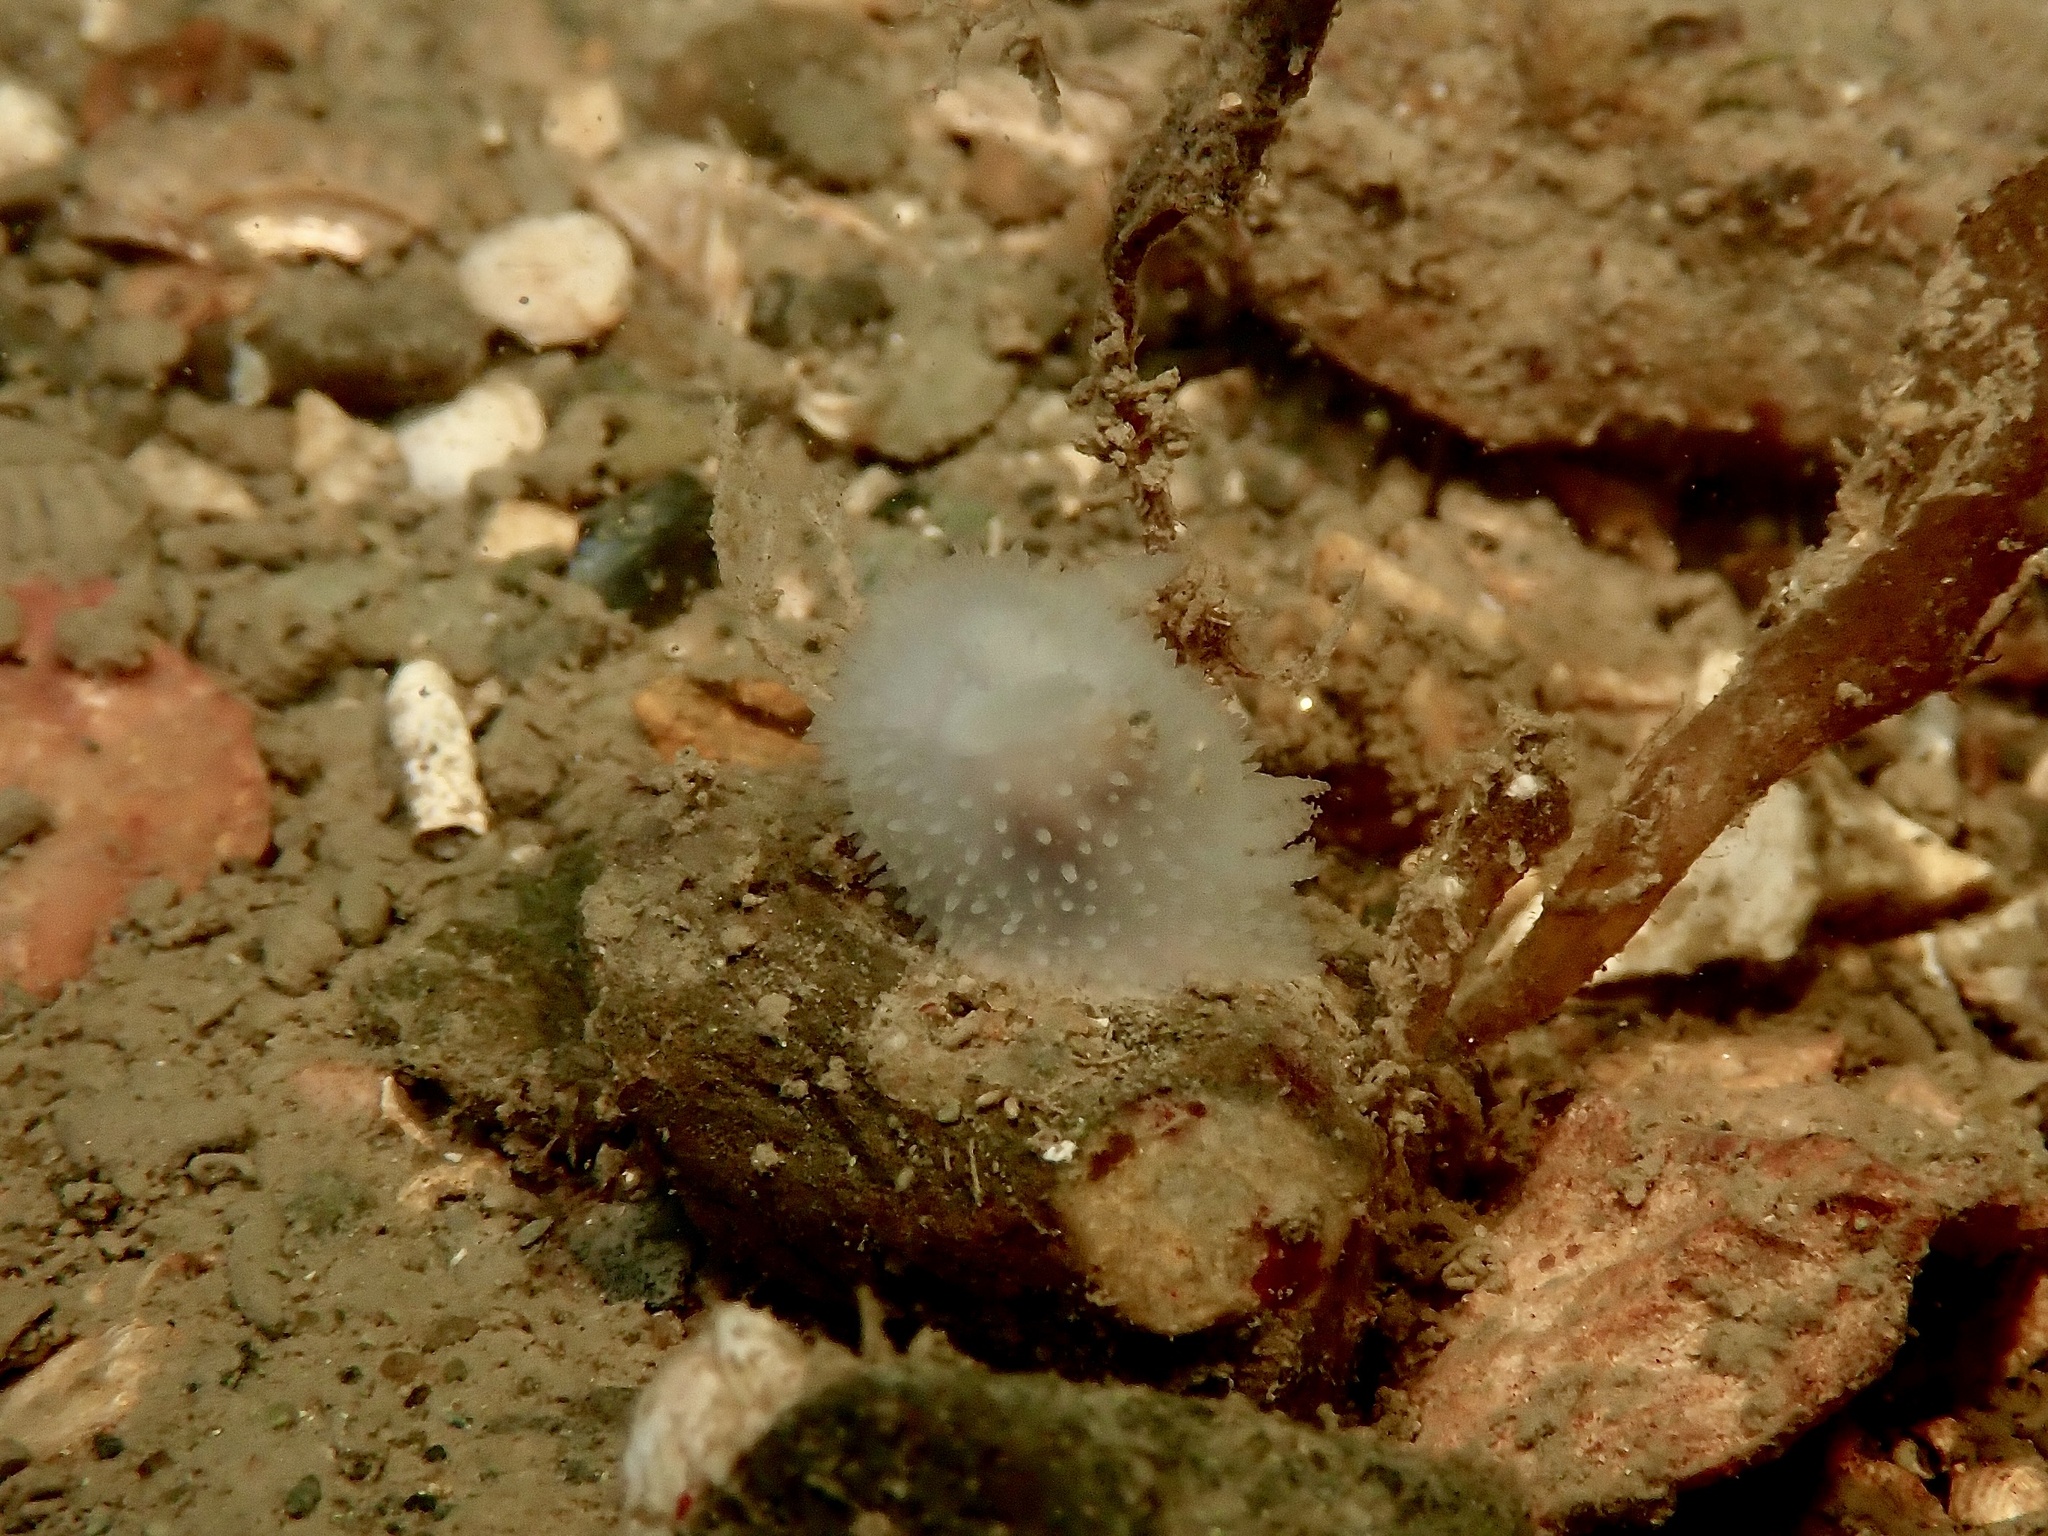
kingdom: Animalia
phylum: Mollusca
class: Gastropoda
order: Nudibranchia
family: Onchidorididae
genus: Acanthodoris
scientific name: Acanthodoris pilosa
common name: Hairy spiny doris
